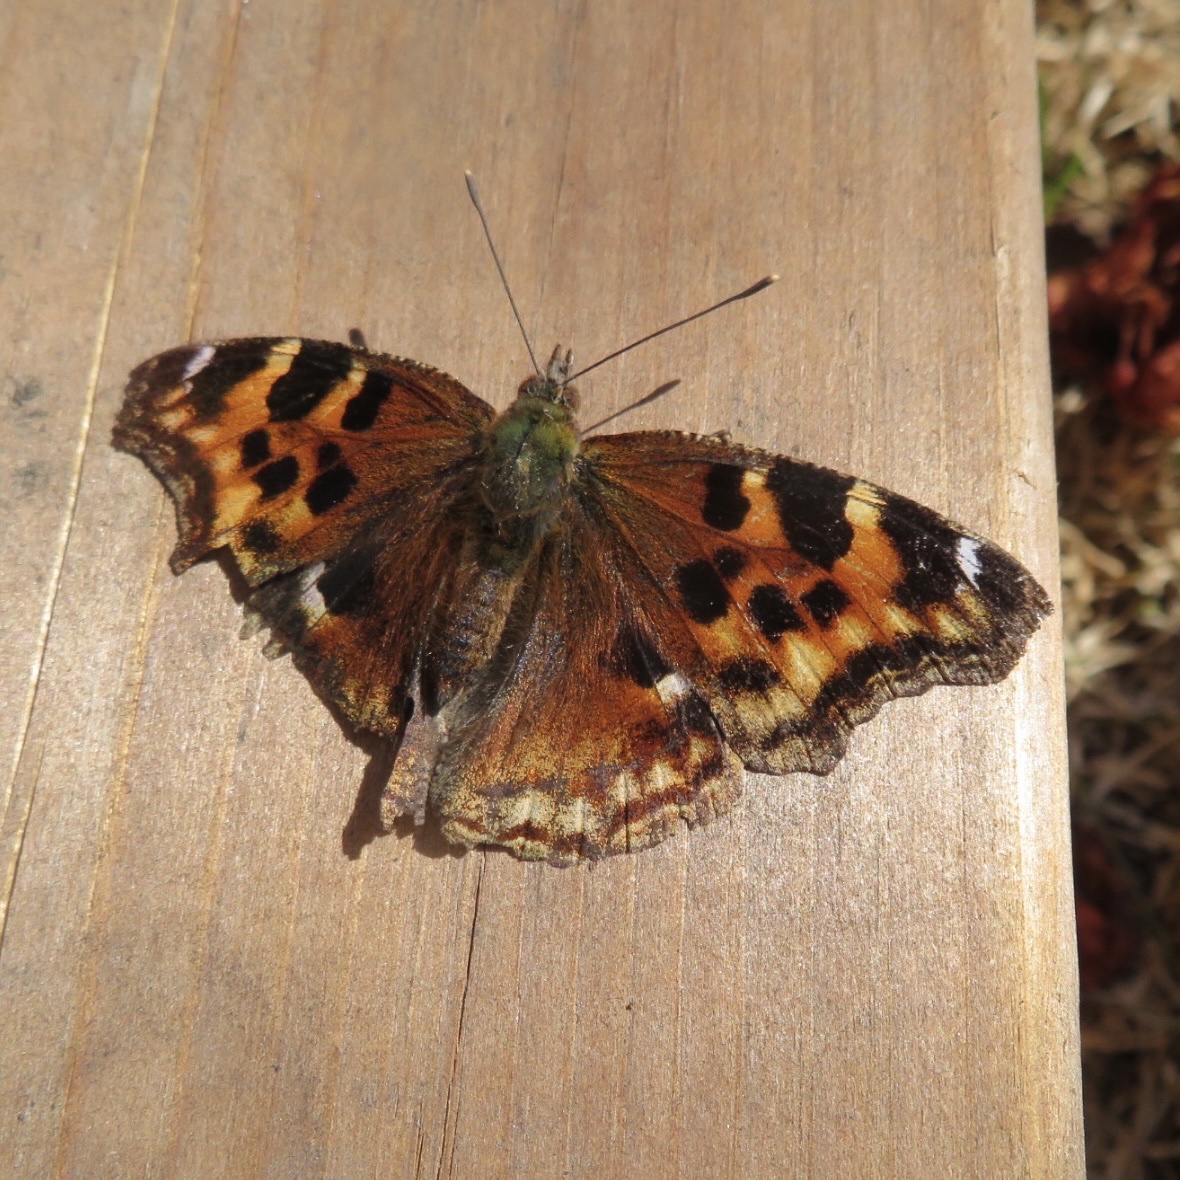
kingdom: Animalia
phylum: Arthropoda
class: Insecta
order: Lepidoptera
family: Nymphalidae
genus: Polygonia
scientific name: Polygonia vaualbum
